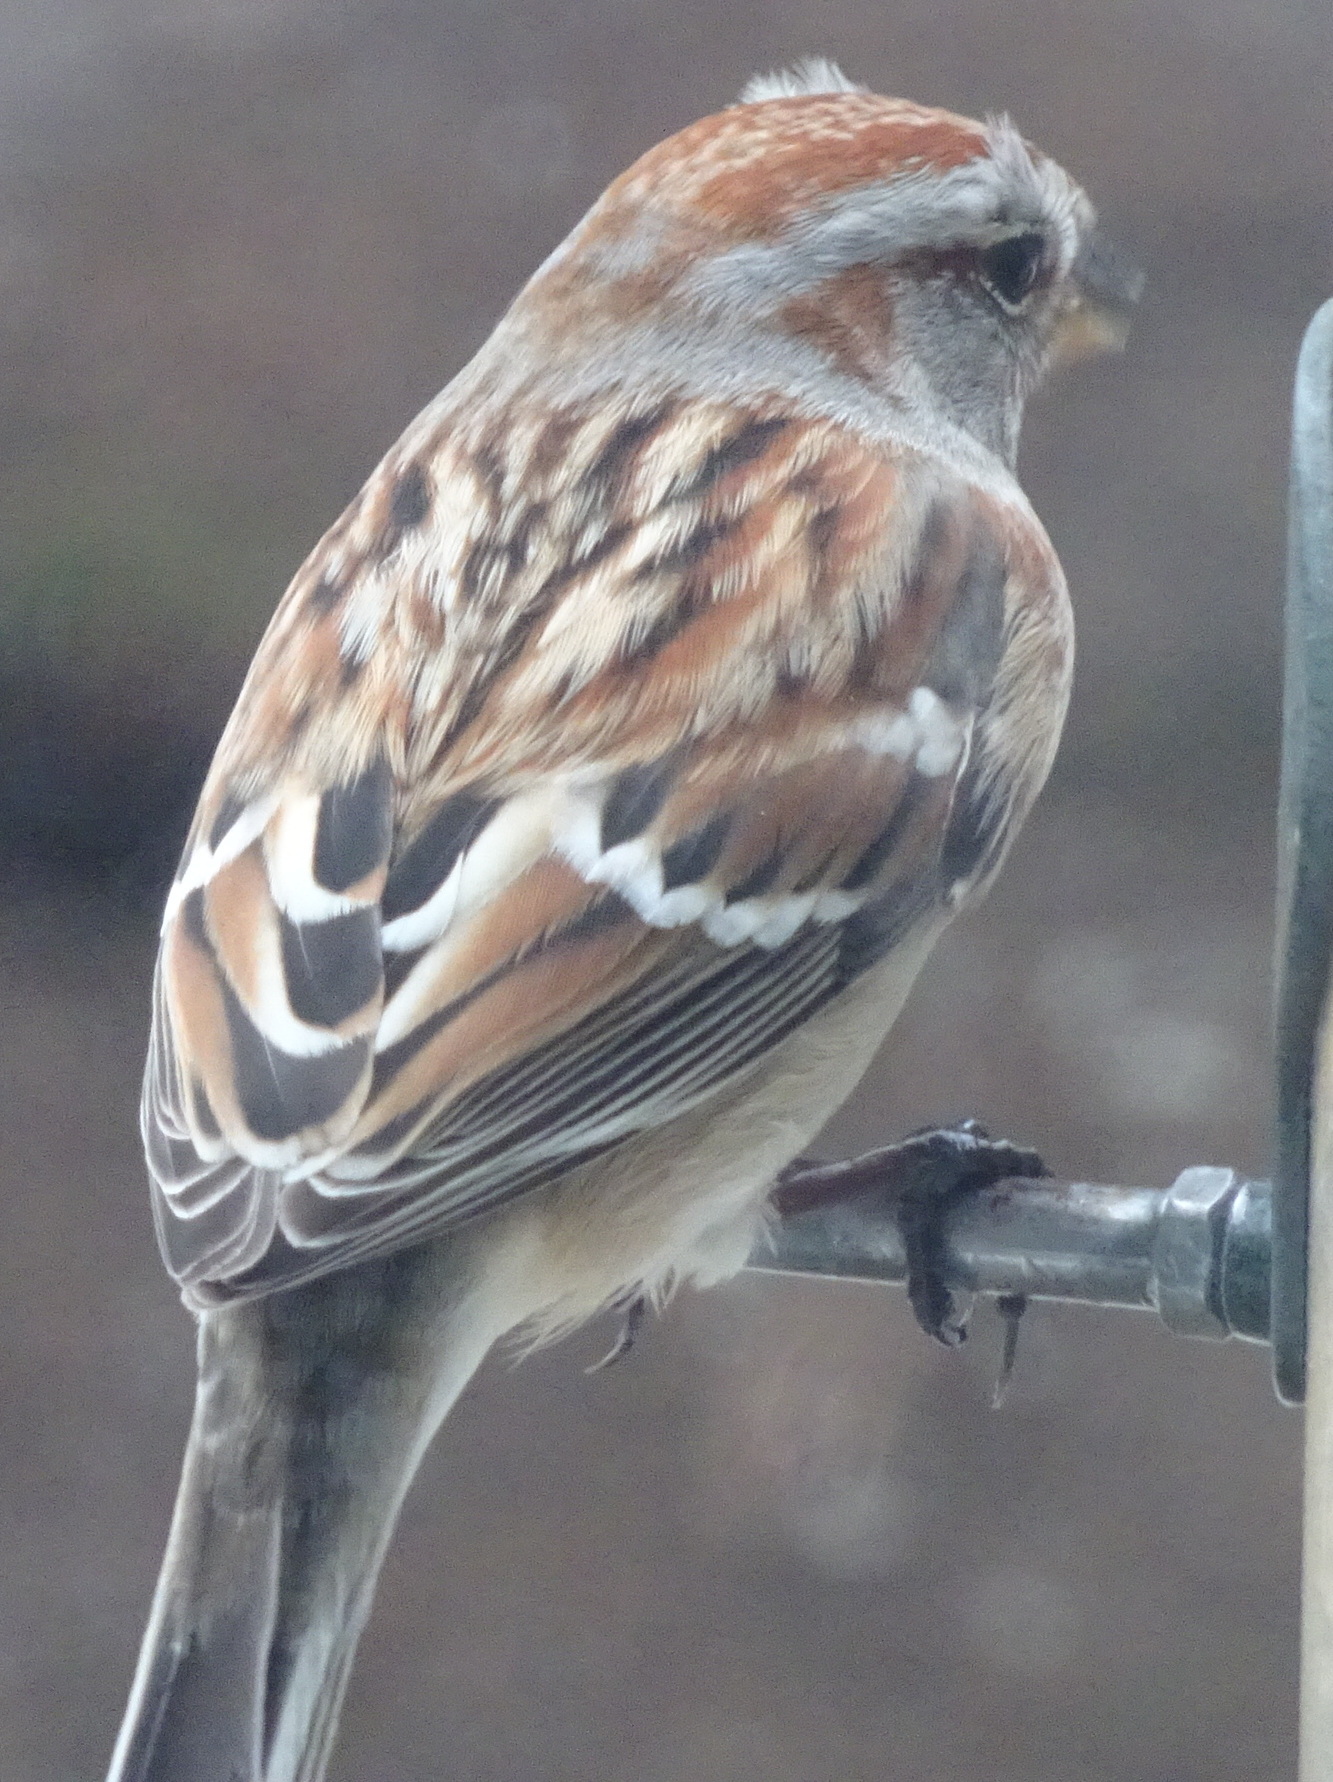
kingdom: Animalia
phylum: Chordata
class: Aves
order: Passeriformes
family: Passerellidae
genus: Spizelloides
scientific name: Spizelloides arborea
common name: American tree sparrow
